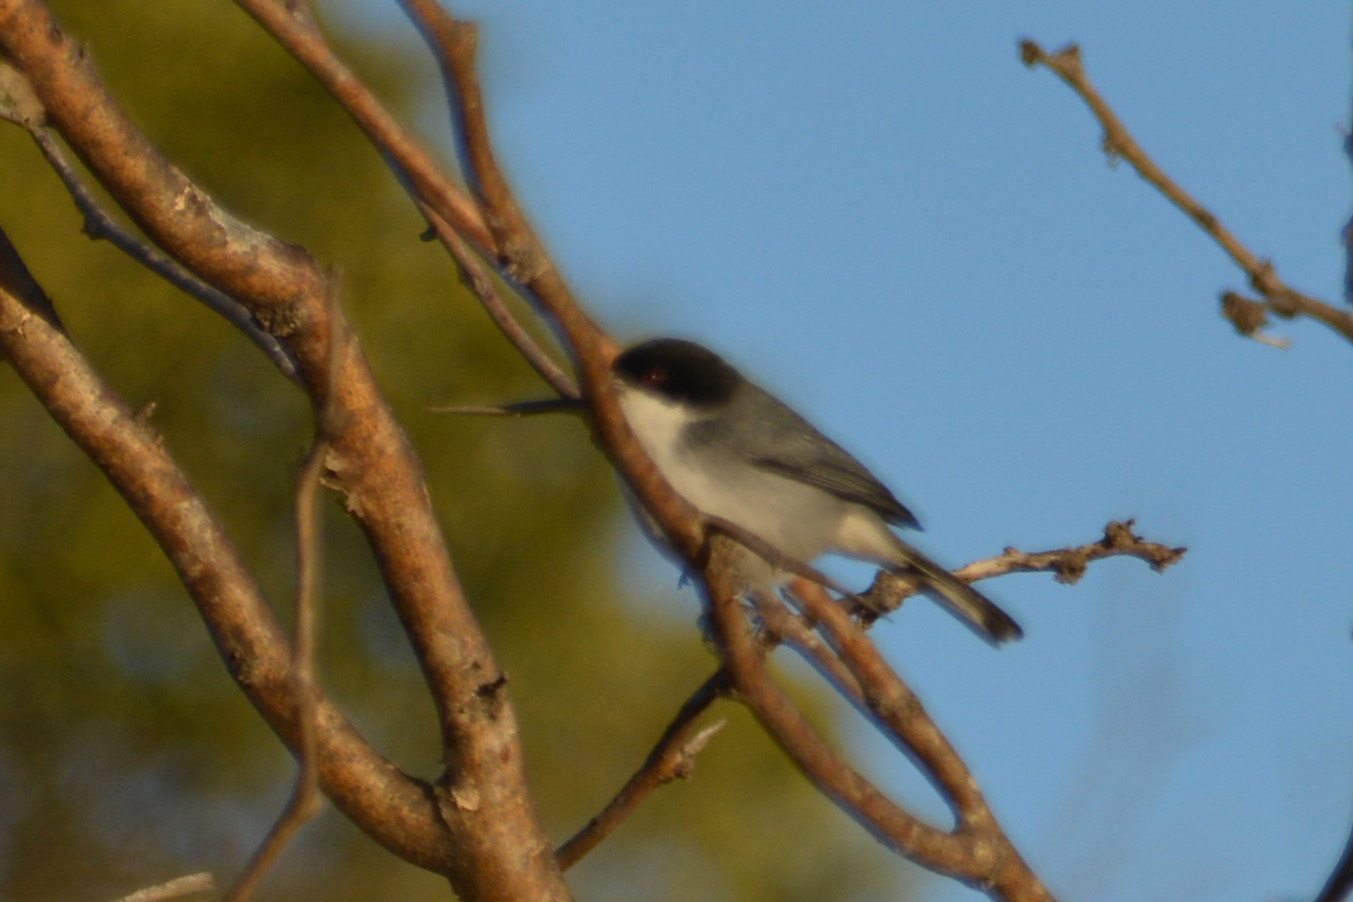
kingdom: Animalia
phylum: Chordata
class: Aves
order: Passeriformes
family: Thraupidae
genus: Microspingus
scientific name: Microspingus melanoleucus
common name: Black-capped warbling-finch
